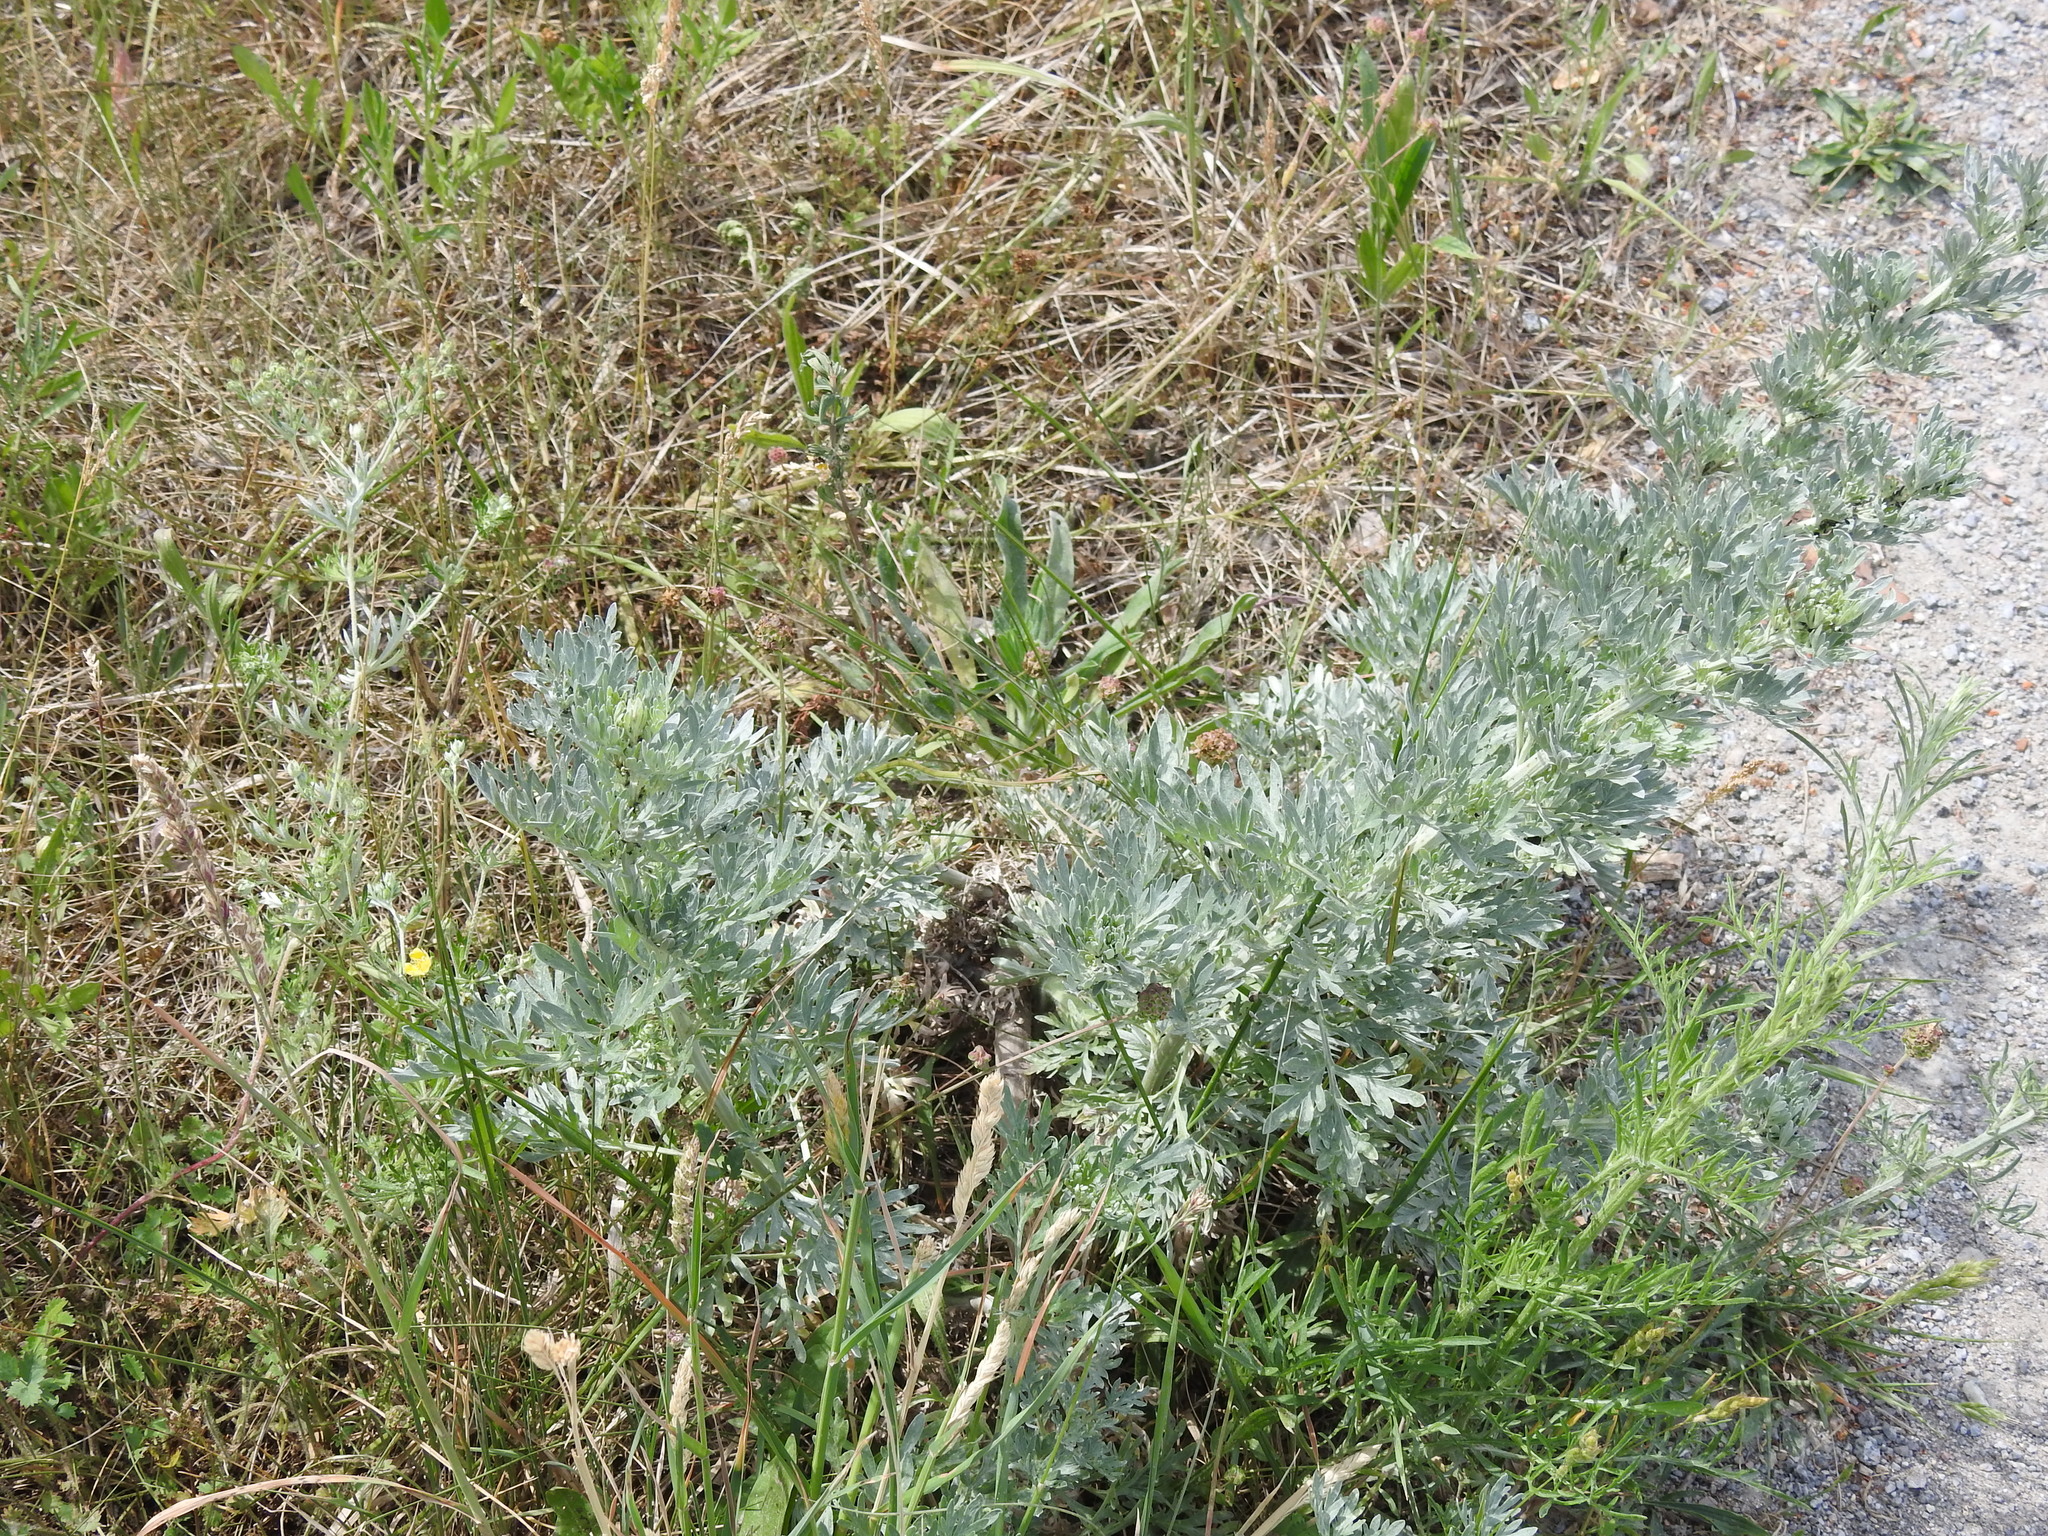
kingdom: Plantae
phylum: Tracheophyta
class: Magnoliopsida
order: Asterales
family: Asteraceae
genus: Artemisia
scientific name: Artemisia absinthium
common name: Wormwood
